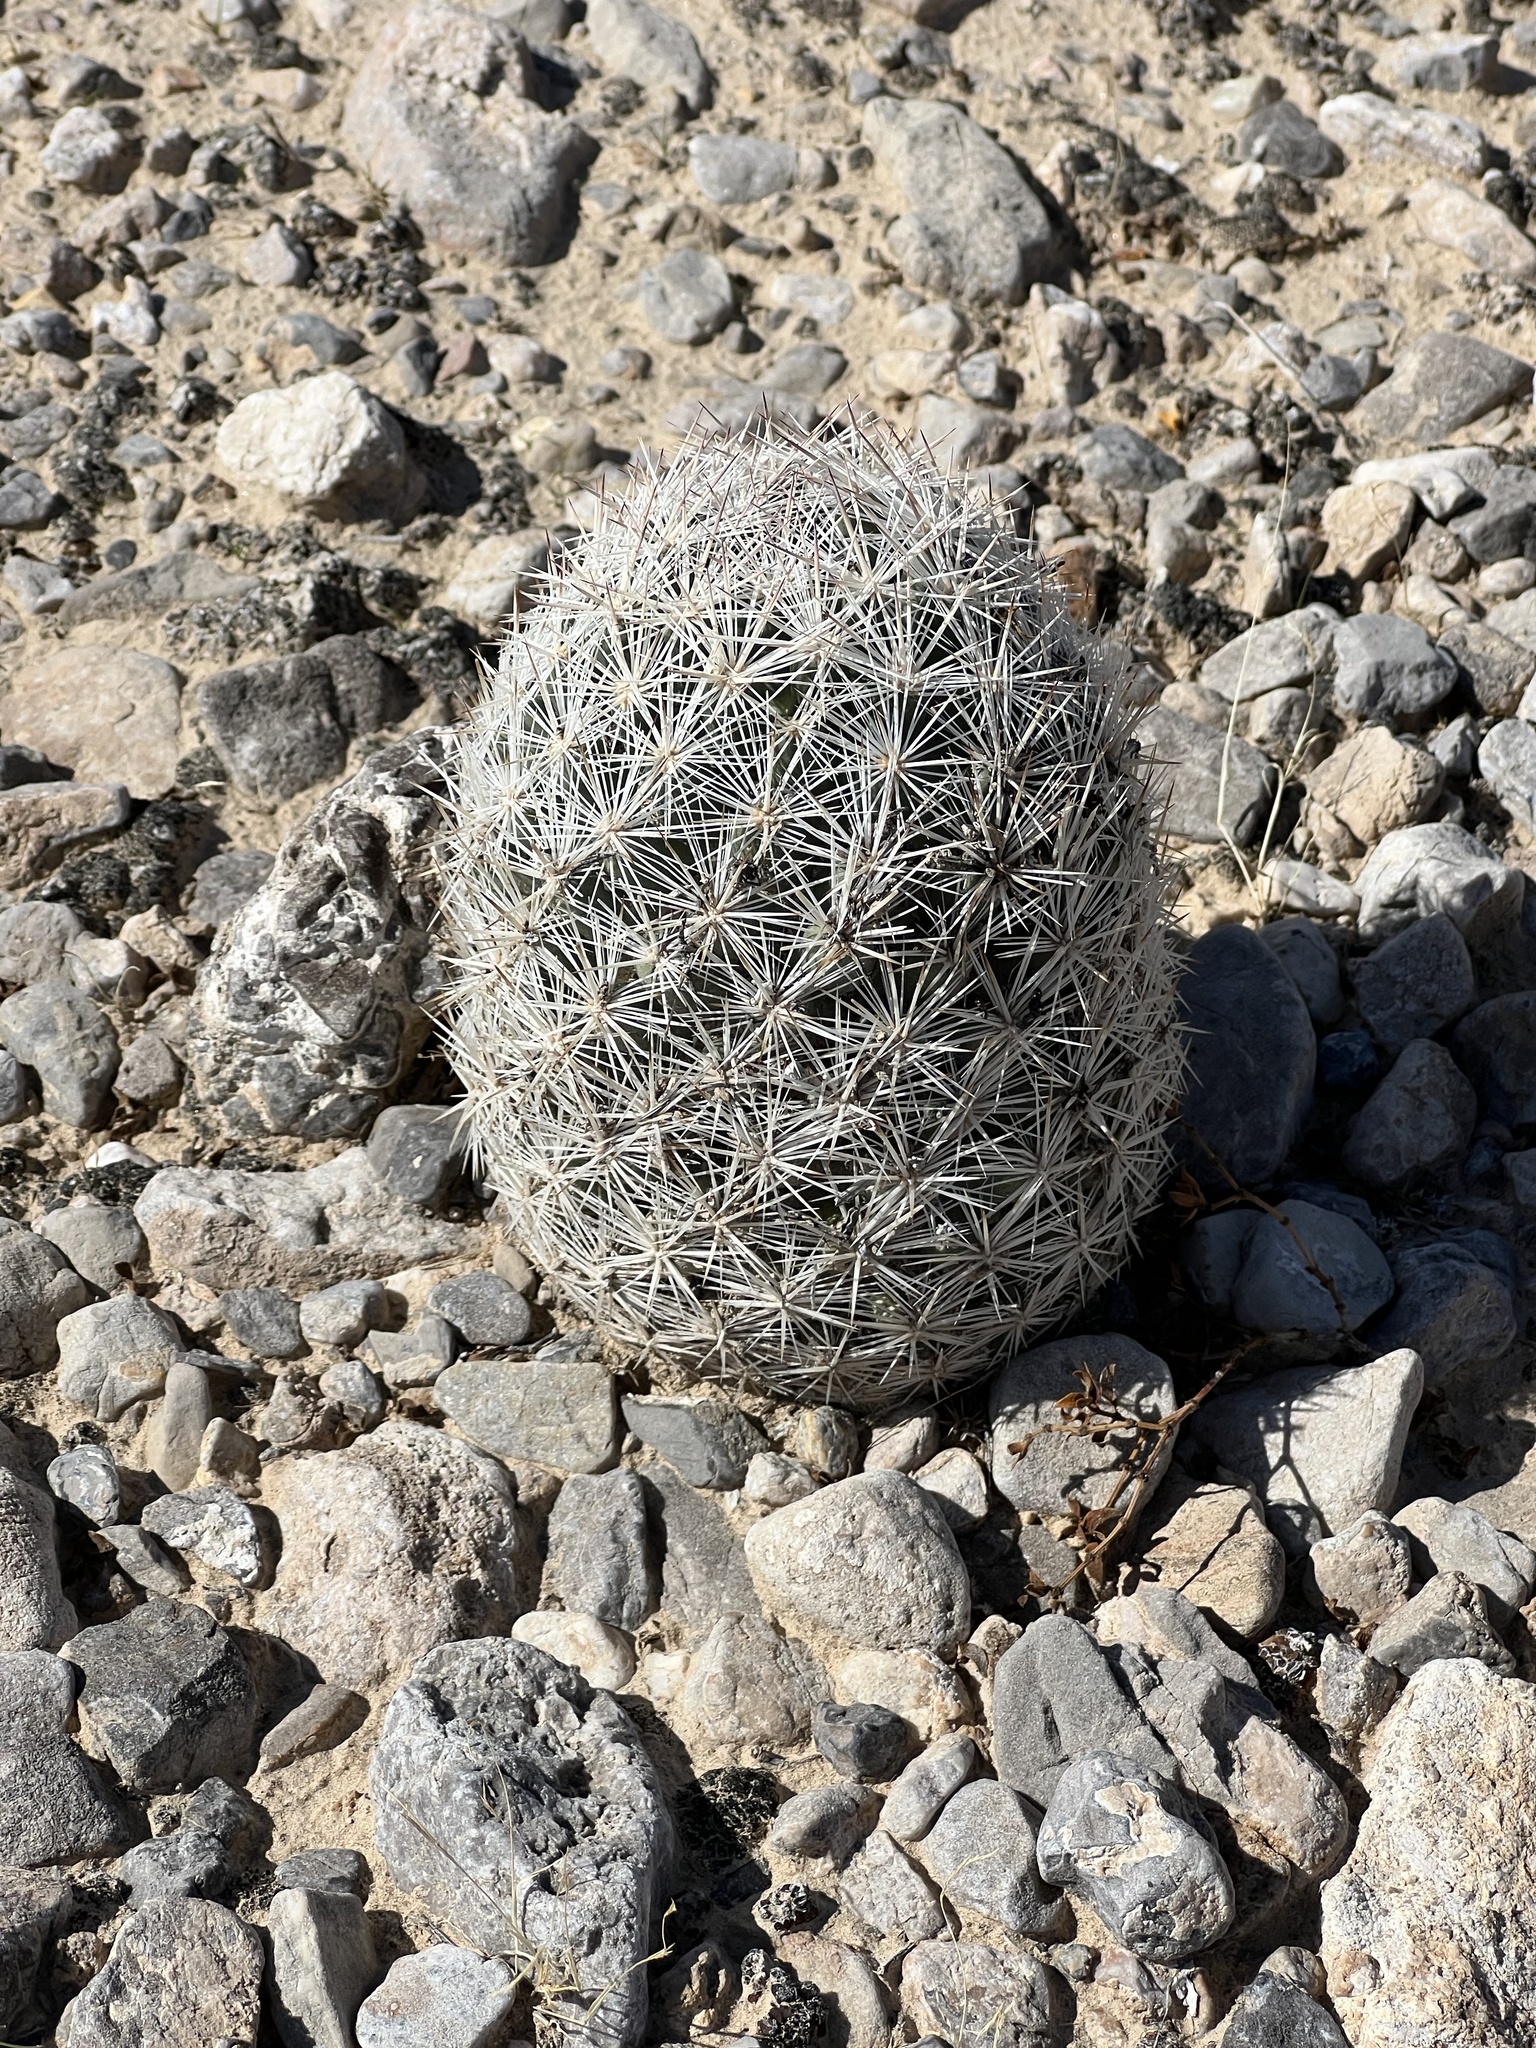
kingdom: Plantae
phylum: Tracheophyta
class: Magnoliopsida
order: Caryophyllales
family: Cactaceae
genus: Pelecyphora
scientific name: Pelecyphora dasyacantha
